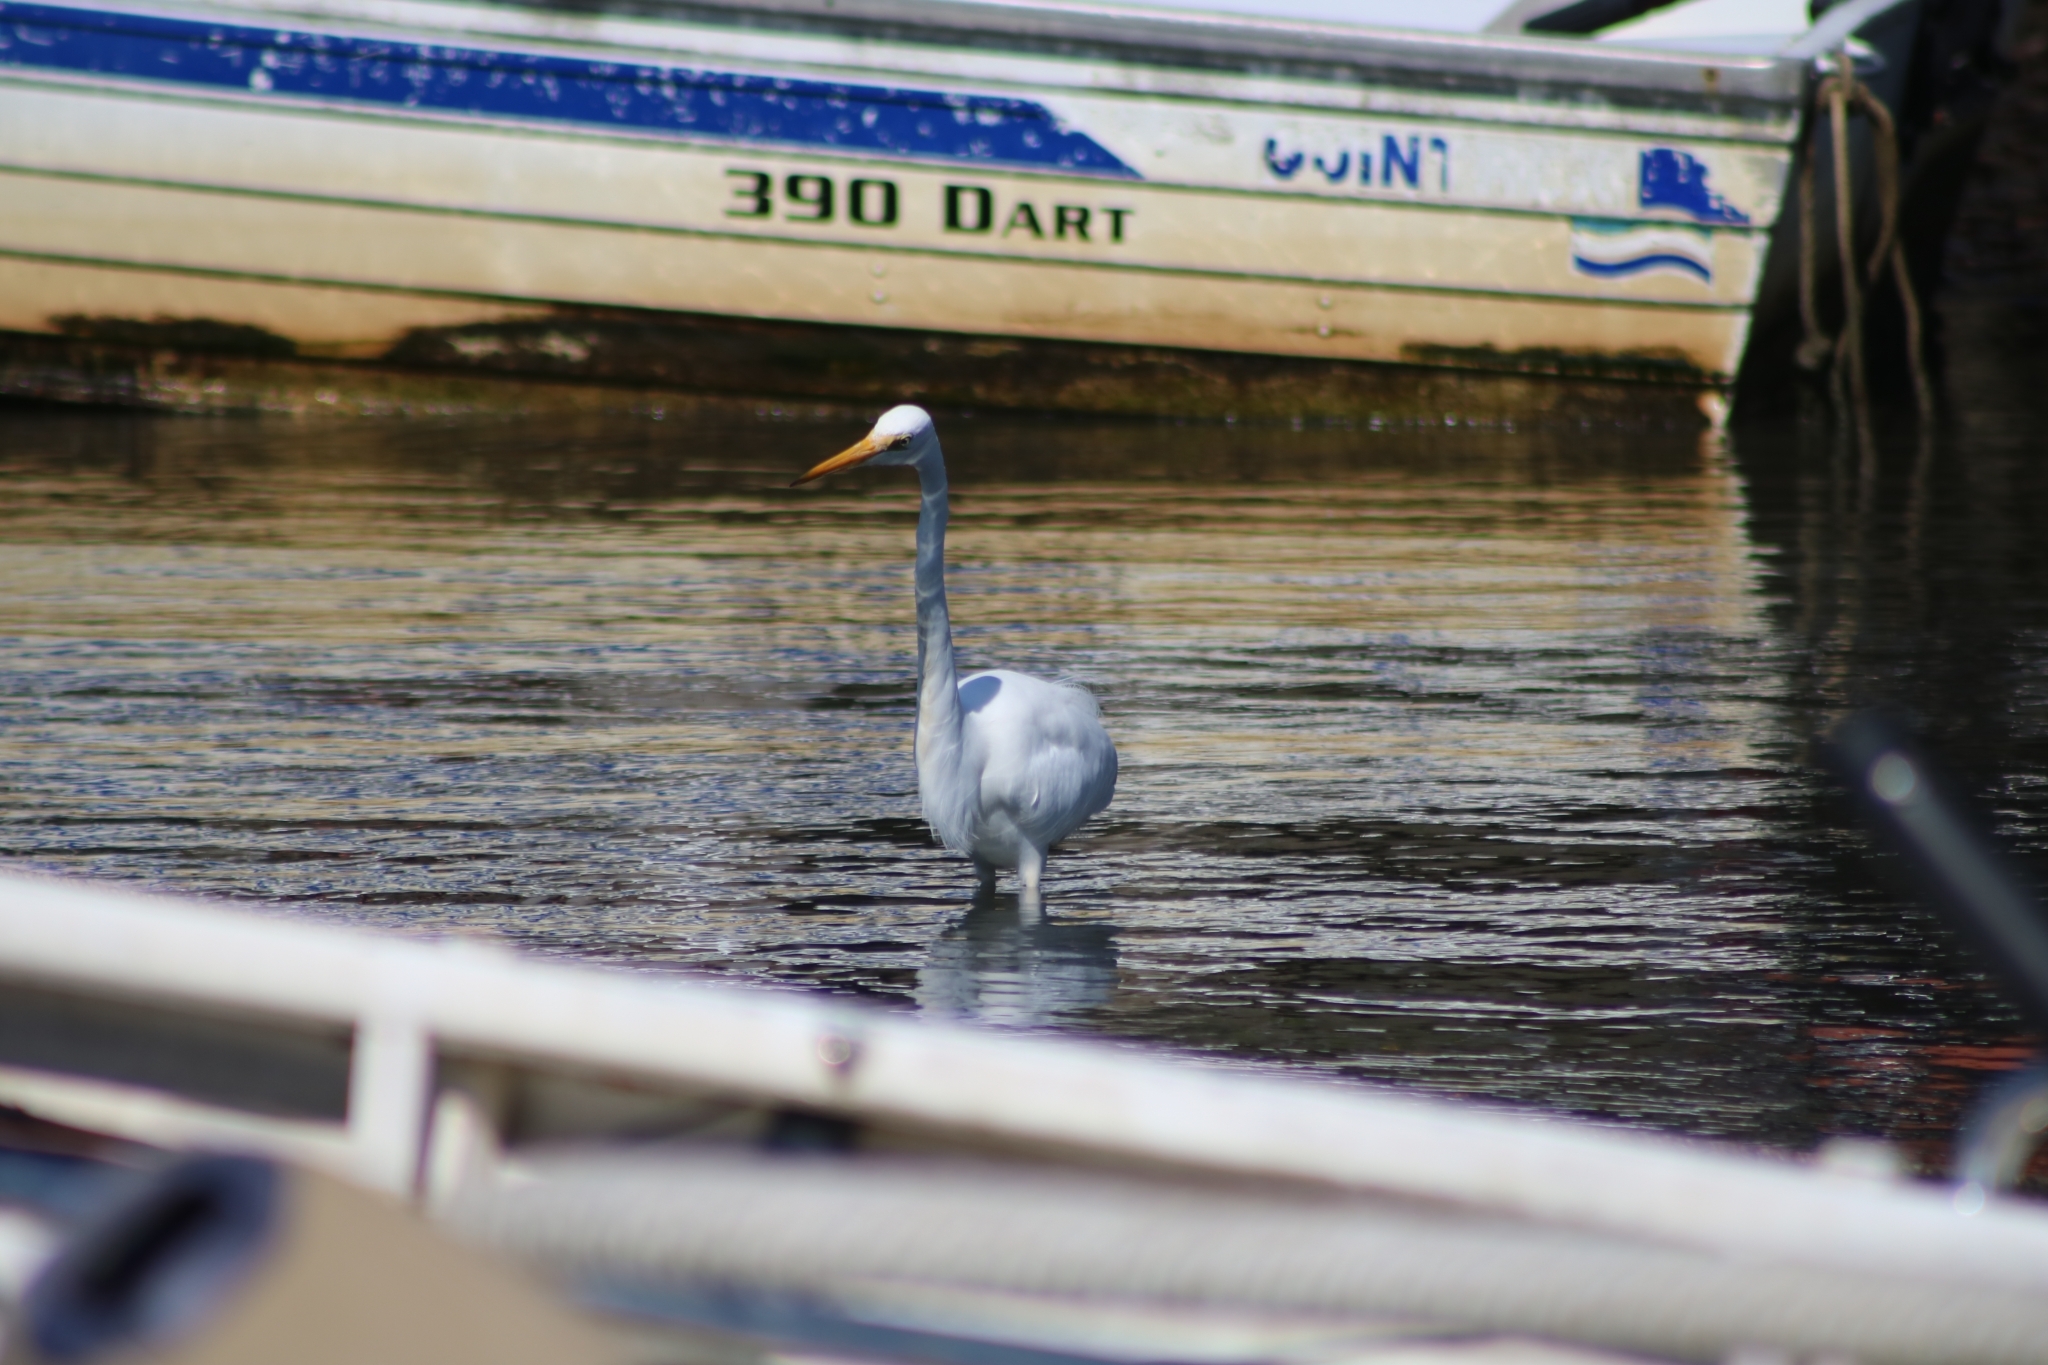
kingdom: Animalia
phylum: Chordata
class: Aves
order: Pelecaniformes
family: Ardeidae
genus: Ardea
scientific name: Ardea alba
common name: Great egret
